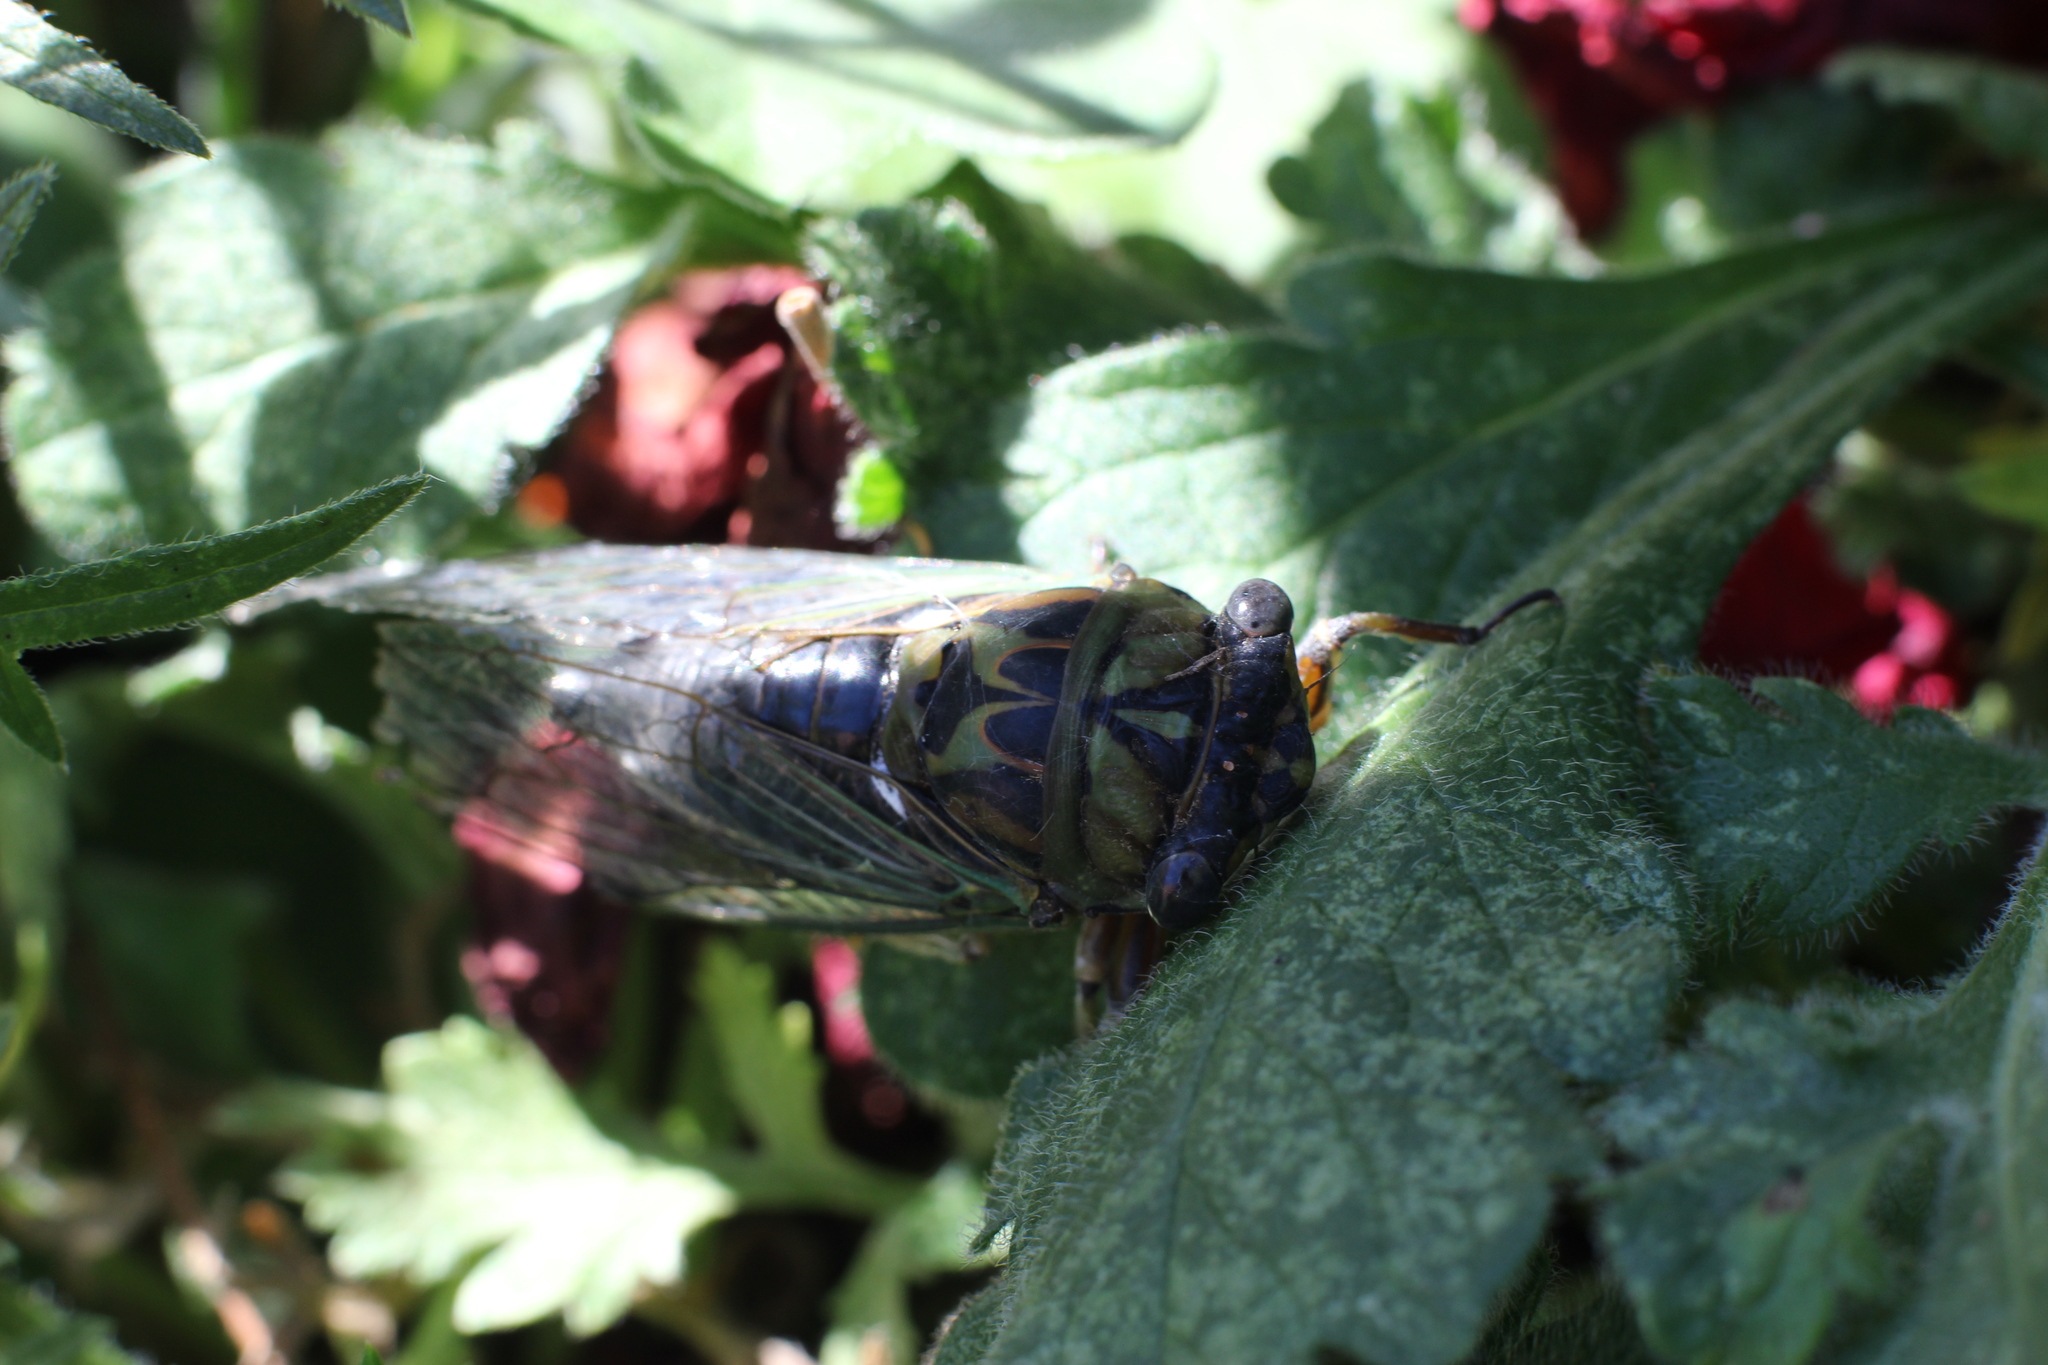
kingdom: Animalia
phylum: Arthropoda
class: Insecta
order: Hemiptera
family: Cicadidae
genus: Neotibicen
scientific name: Neotibicen pruinosus
